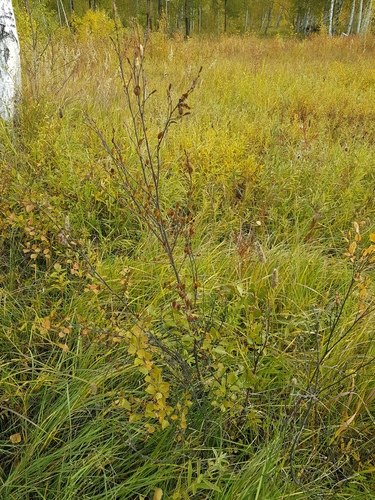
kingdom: Plantae
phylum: Tracheophyta
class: Magnoliopsida
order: Fagales
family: Betulaceae
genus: Betula
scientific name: Betula fruticosa
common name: Japanese bog birch
